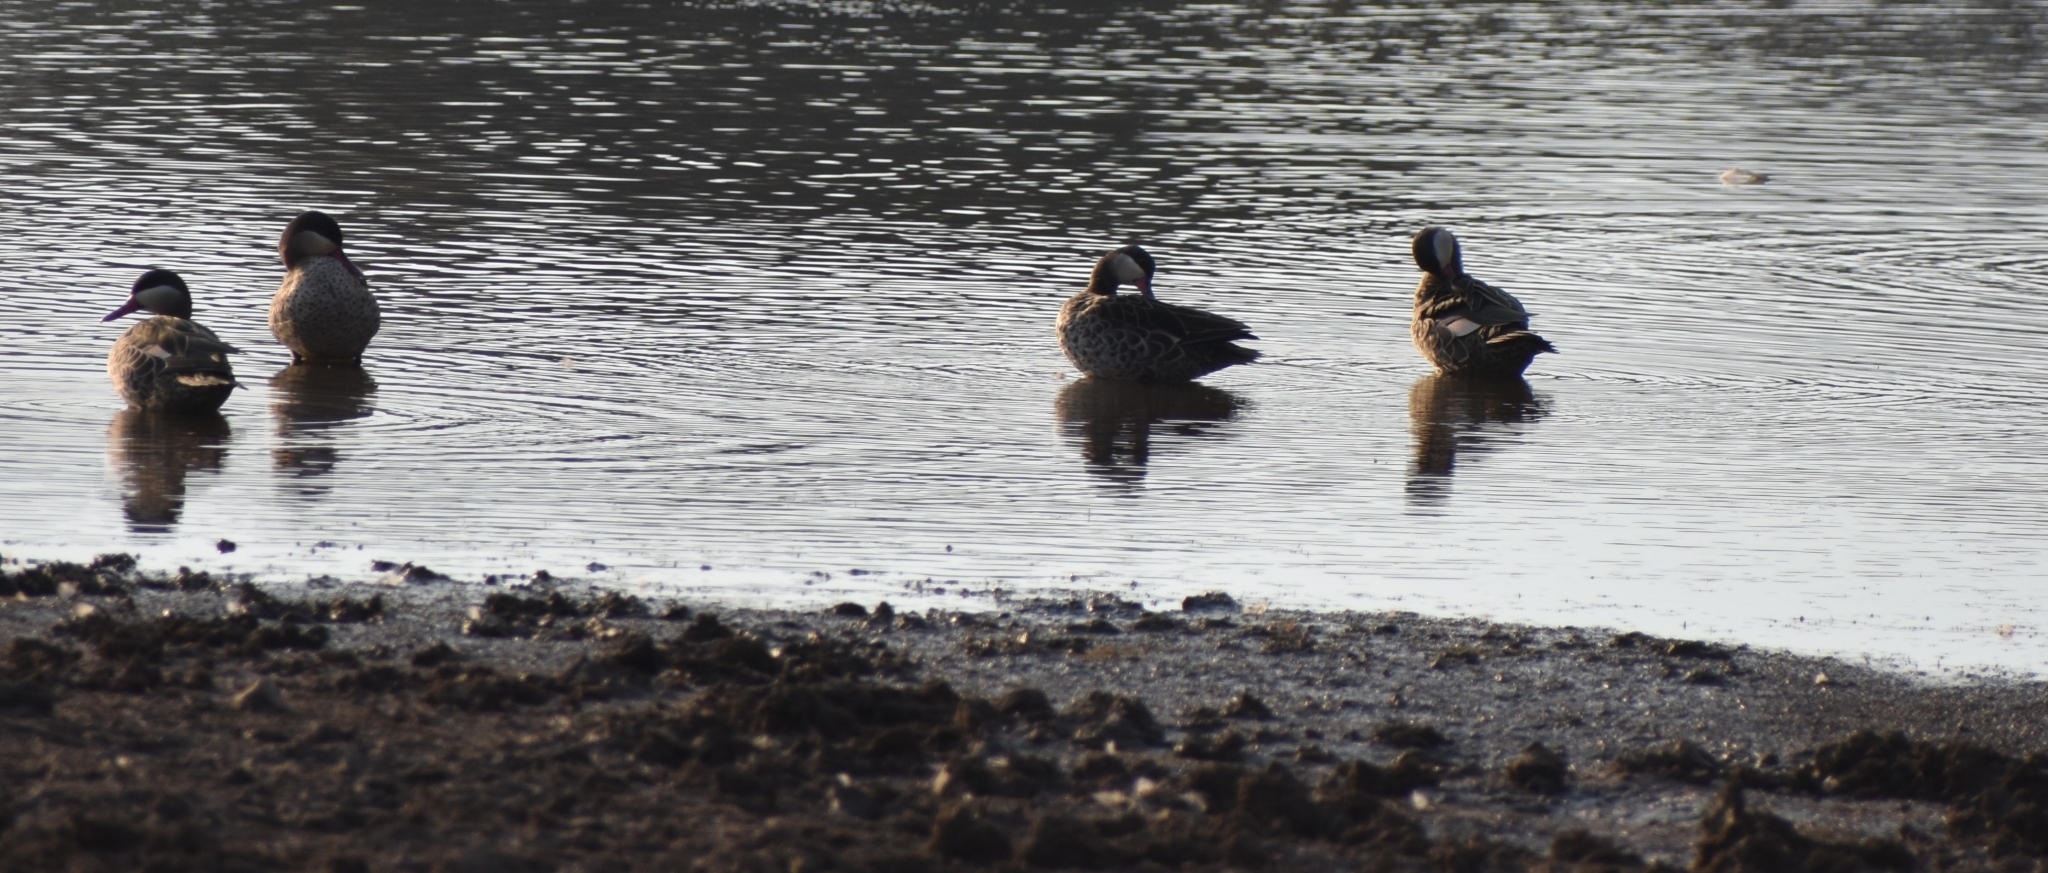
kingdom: Animalia
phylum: Chordata
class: Aves
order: Anseriformes
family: Anatidae
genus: Anas
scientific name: Anas erythrorhyncha
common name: Red-billed teal
